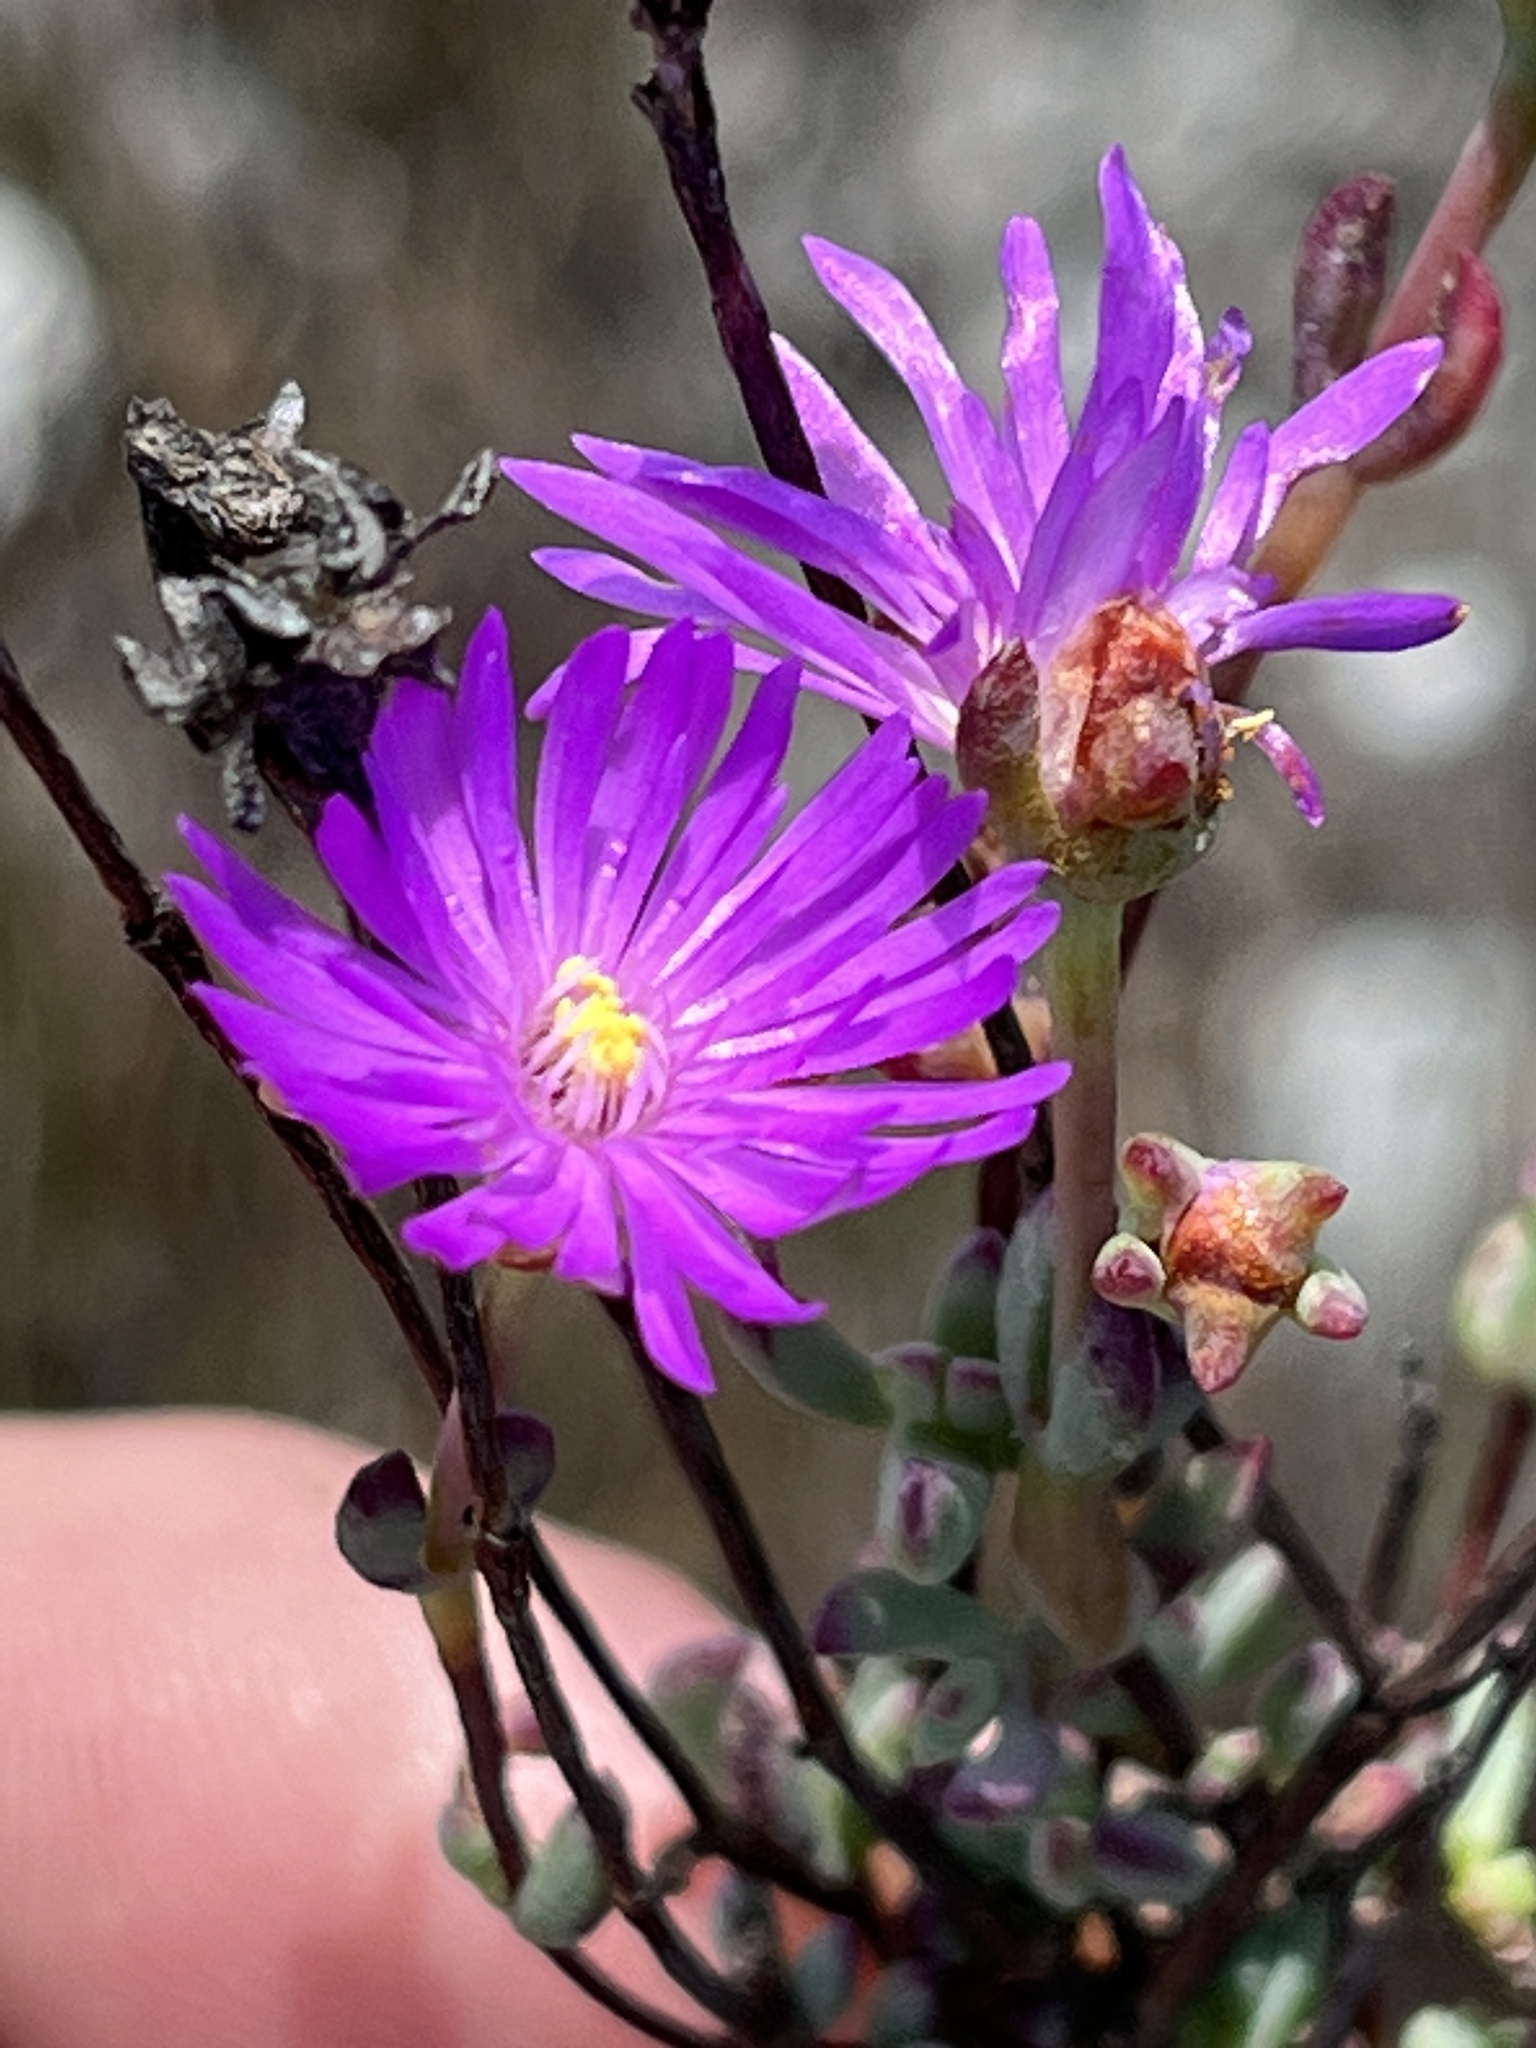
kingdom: Plantae
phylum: Tracheophyta
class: Magnoliopsida
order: Caryophyllales
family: Aizoaceae
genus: Lampranthus
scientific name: Lampranthus falcatus
